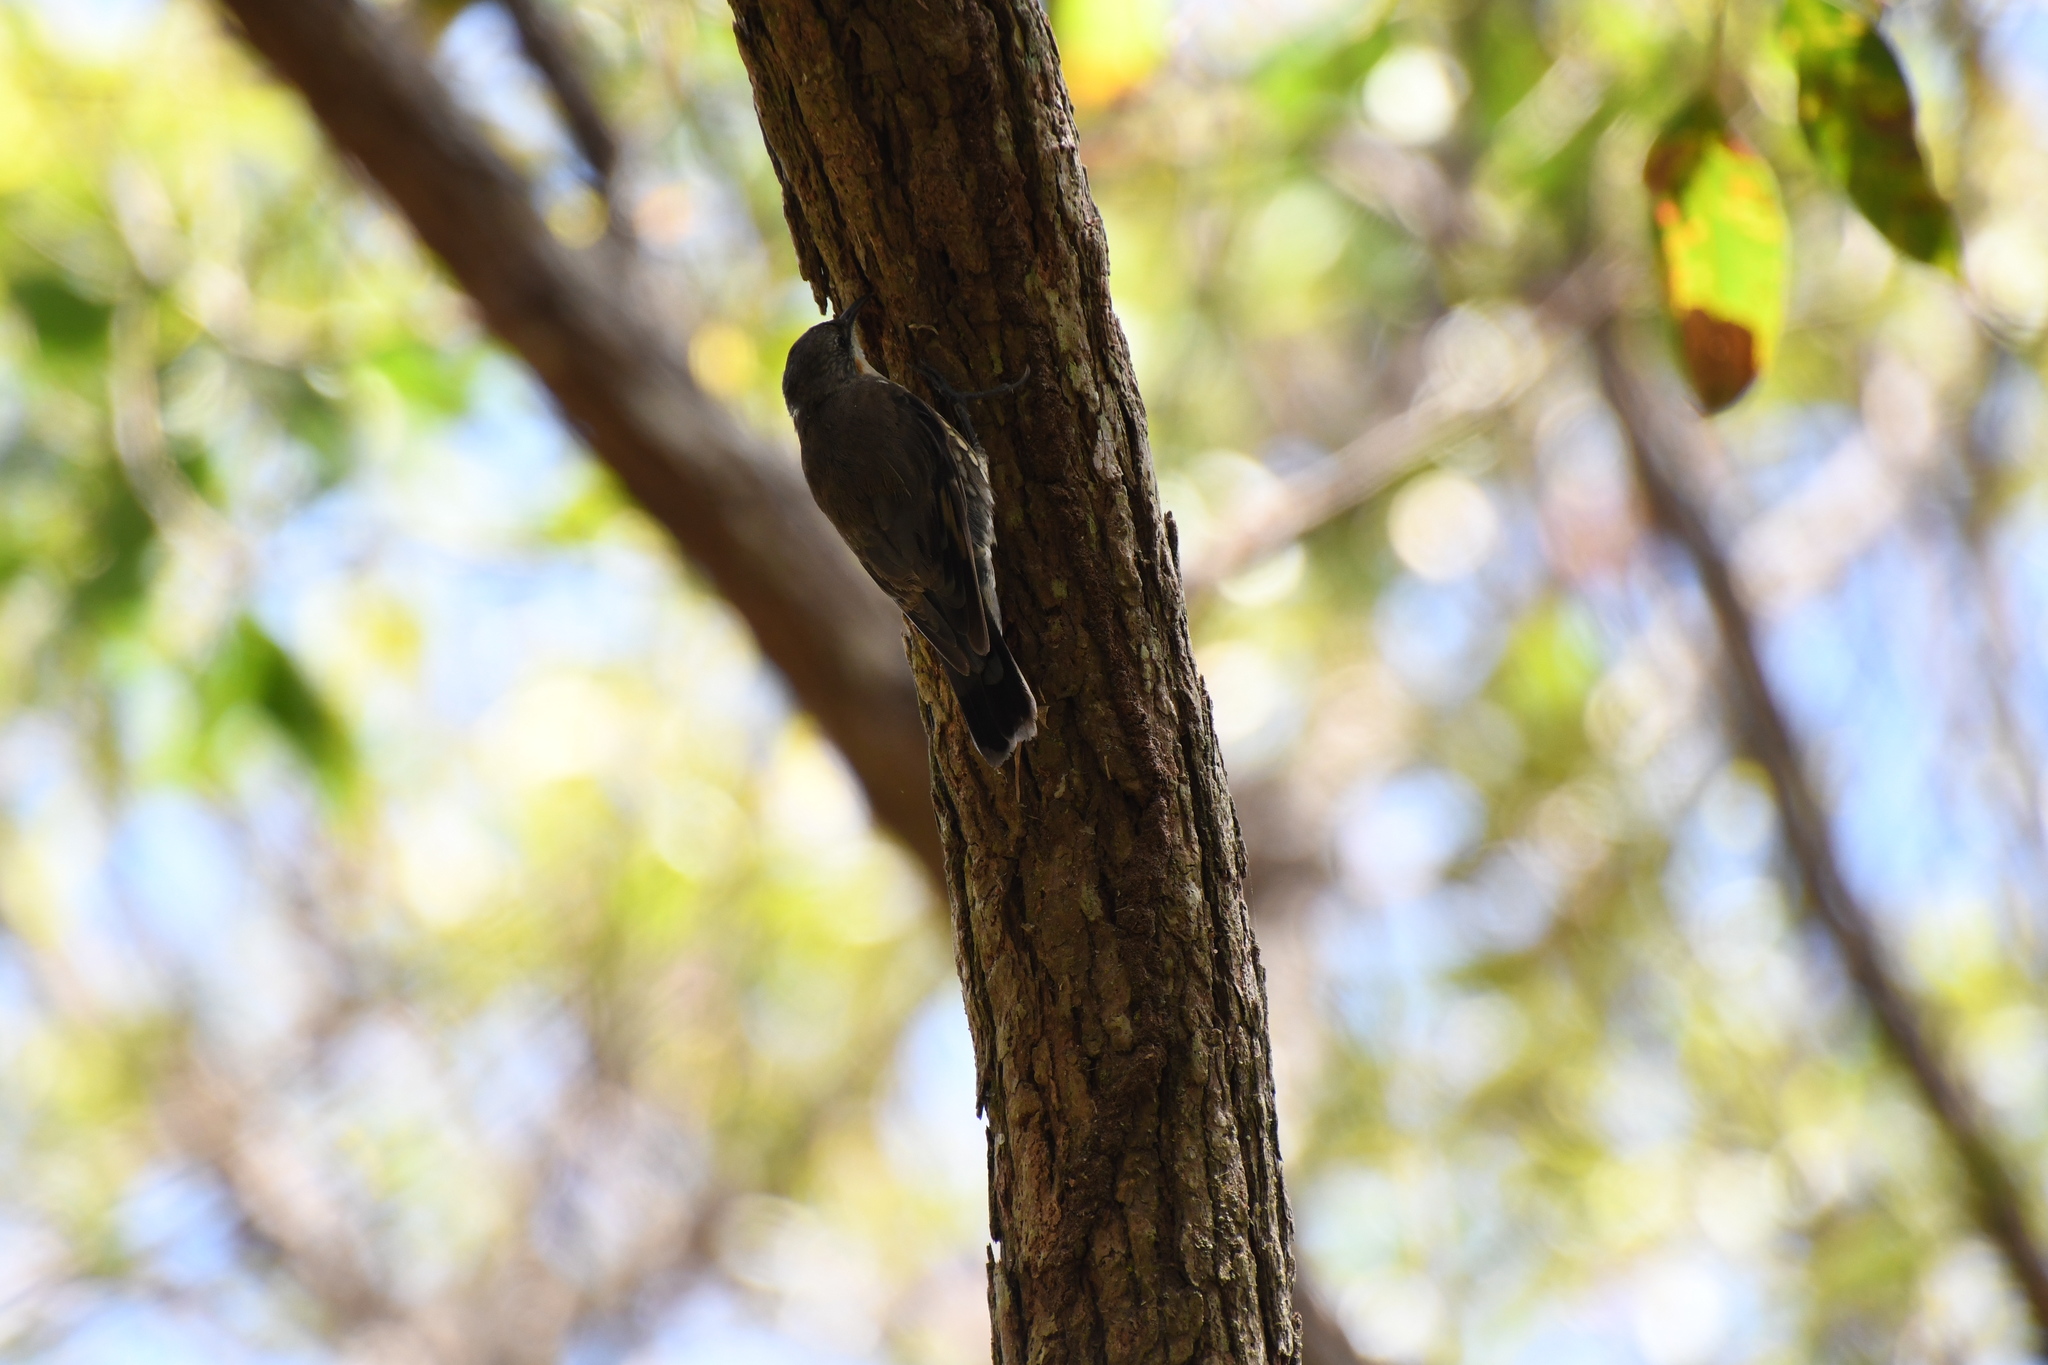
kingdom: Animalia
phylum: Chordata
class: Aves
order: Passeriformes
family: Climacteridae
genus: Cormobates
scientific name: Cormobates leucophaea
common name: White-throated treecreeper
